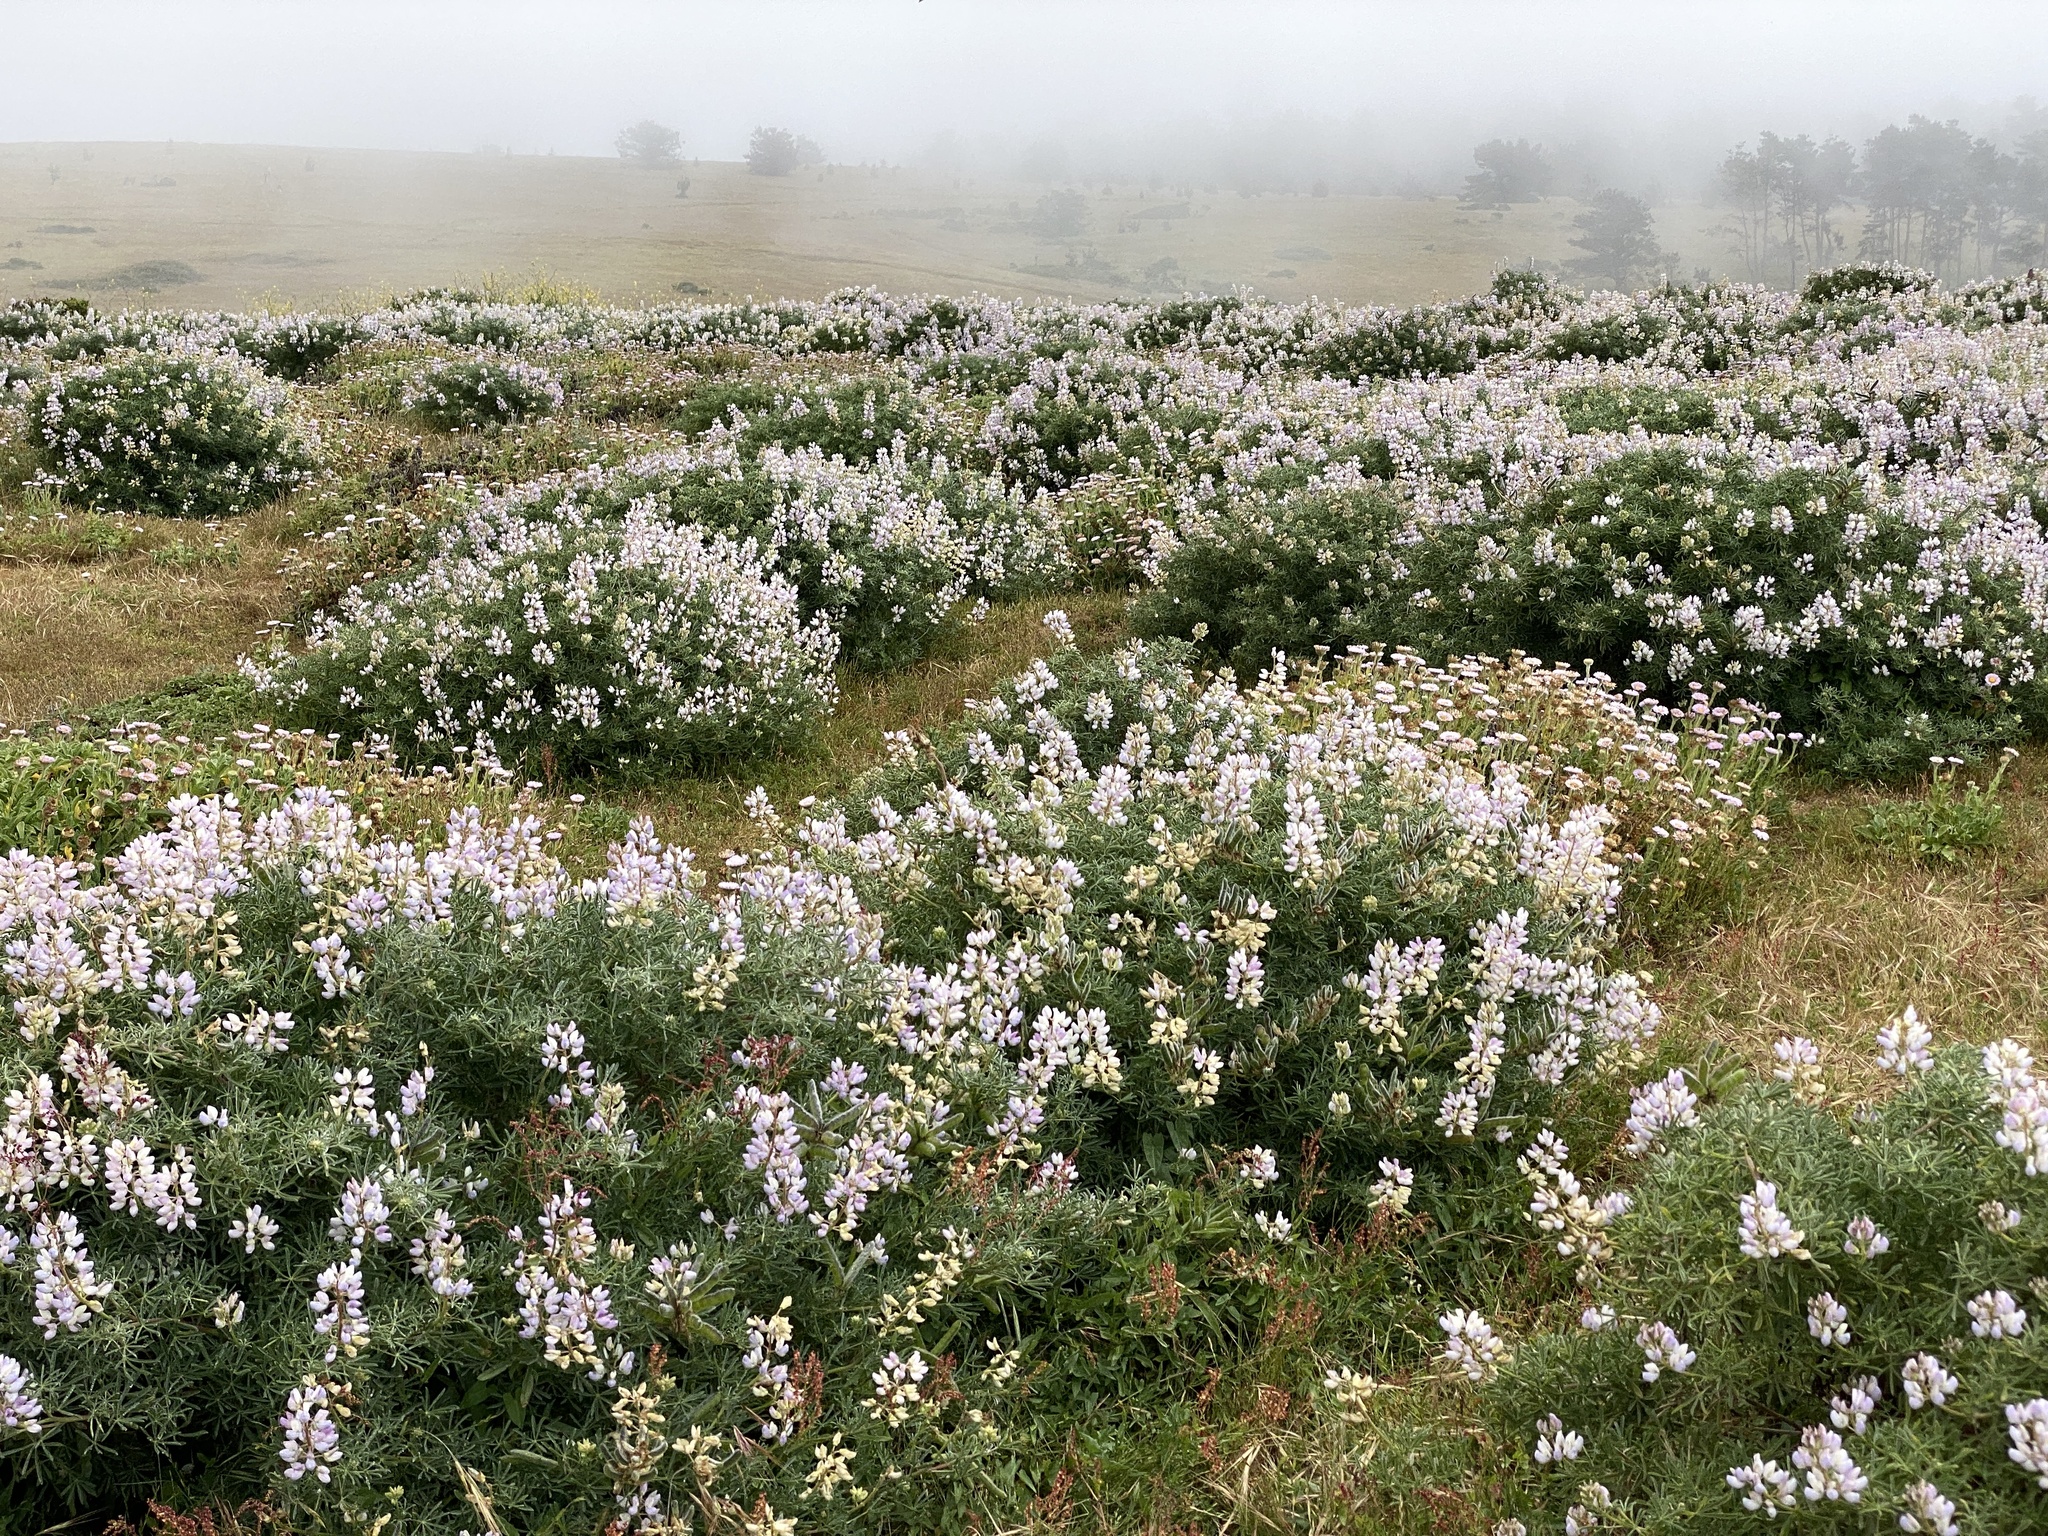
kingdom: Plantae
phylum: Tracheophyta
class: Magnoliopsida
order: Fabales
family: Fabaceae
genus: Lupinus
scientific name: Lupinus arboreus
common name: Yellow bush lupine
